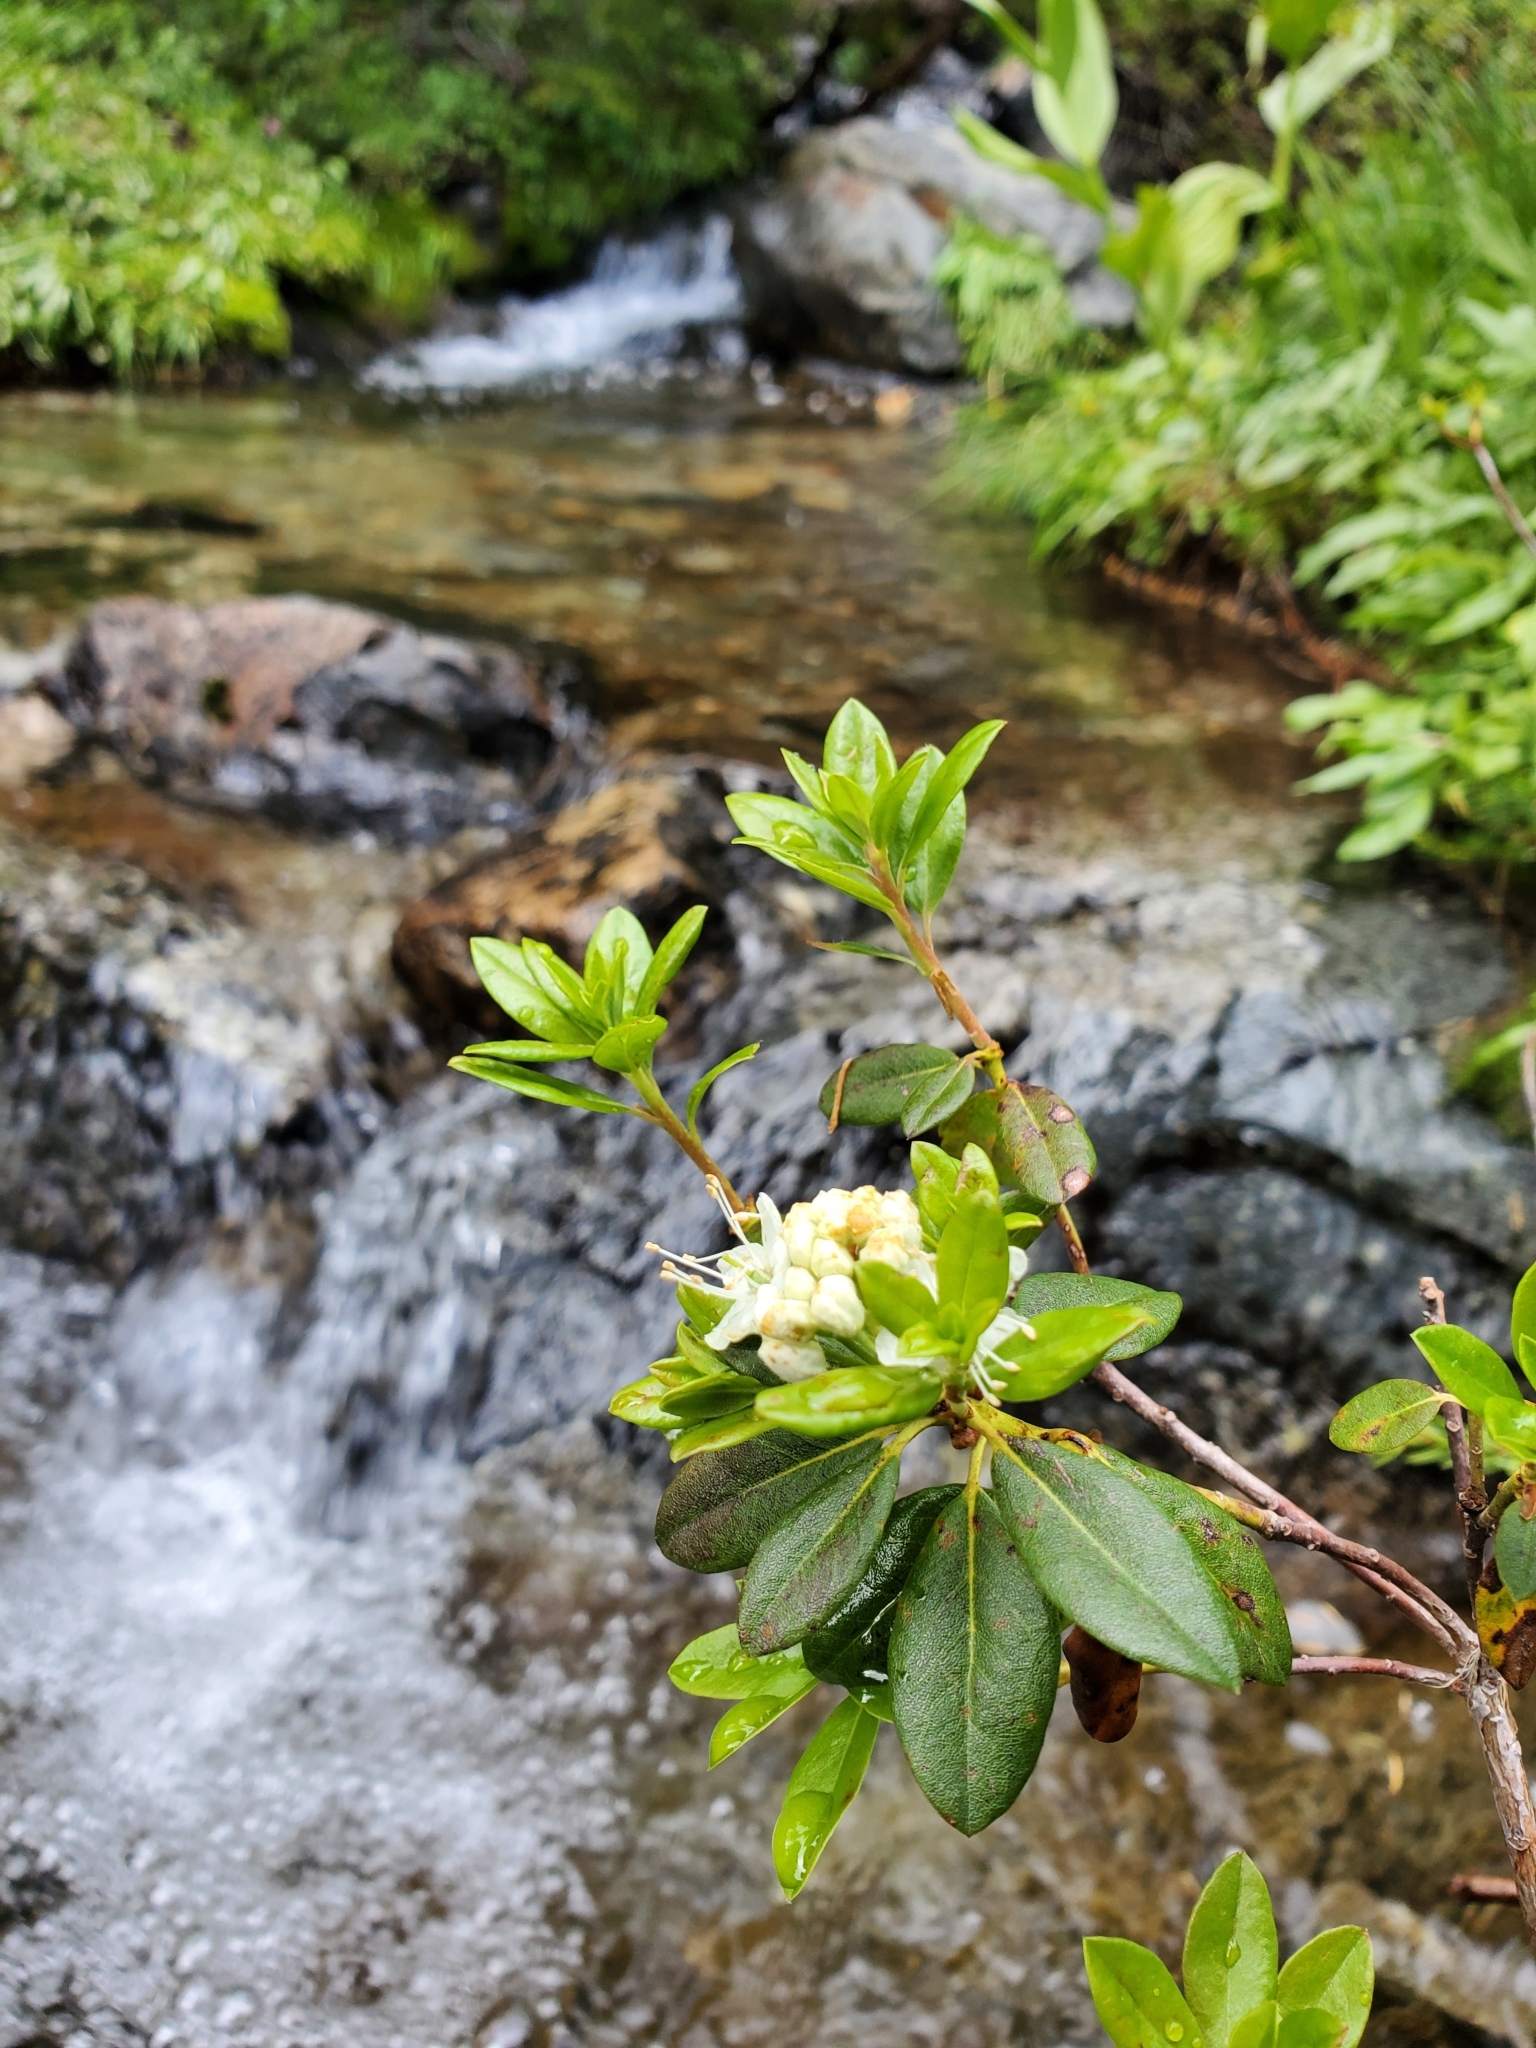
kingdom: Plantae
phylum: Tracheophyta
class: Magnoliopsida
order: Ericales
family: Ericaceae
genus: Rhododendron
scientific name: Rhododendron columbianum
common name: Western labrador tea
